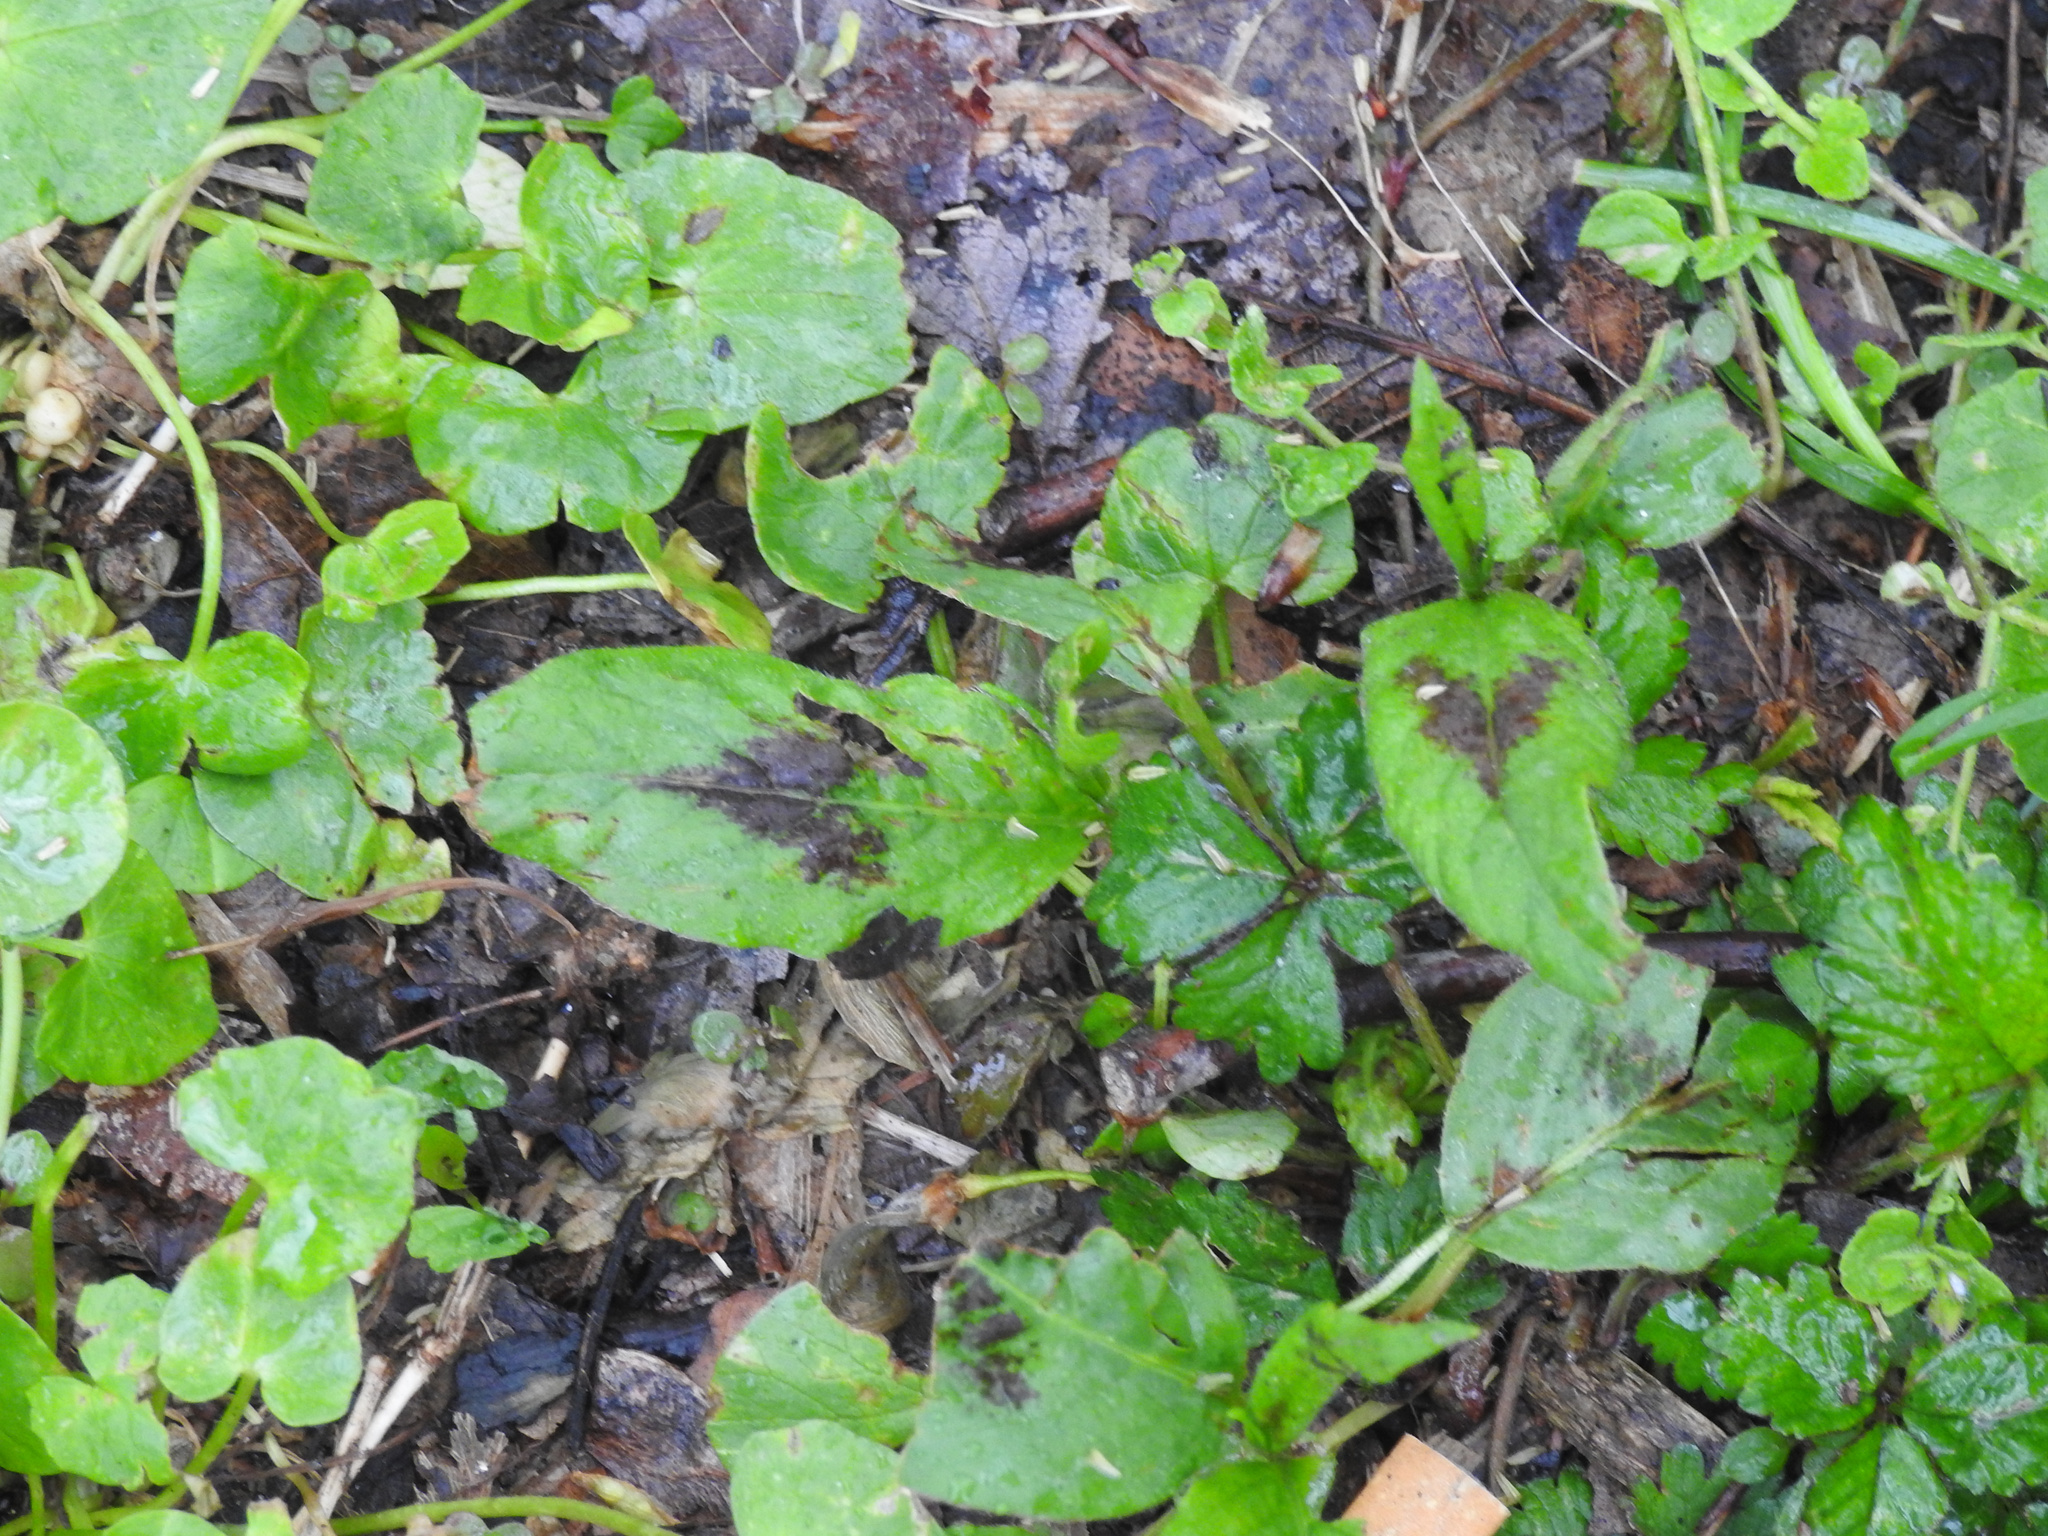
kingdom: Plantae
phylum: Tracheophyta
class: Magnoliopsida
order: Caryophyllales
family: Polygonaceae
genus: Persicaria
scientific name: Persicaria virginiana
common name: Jumpseed
